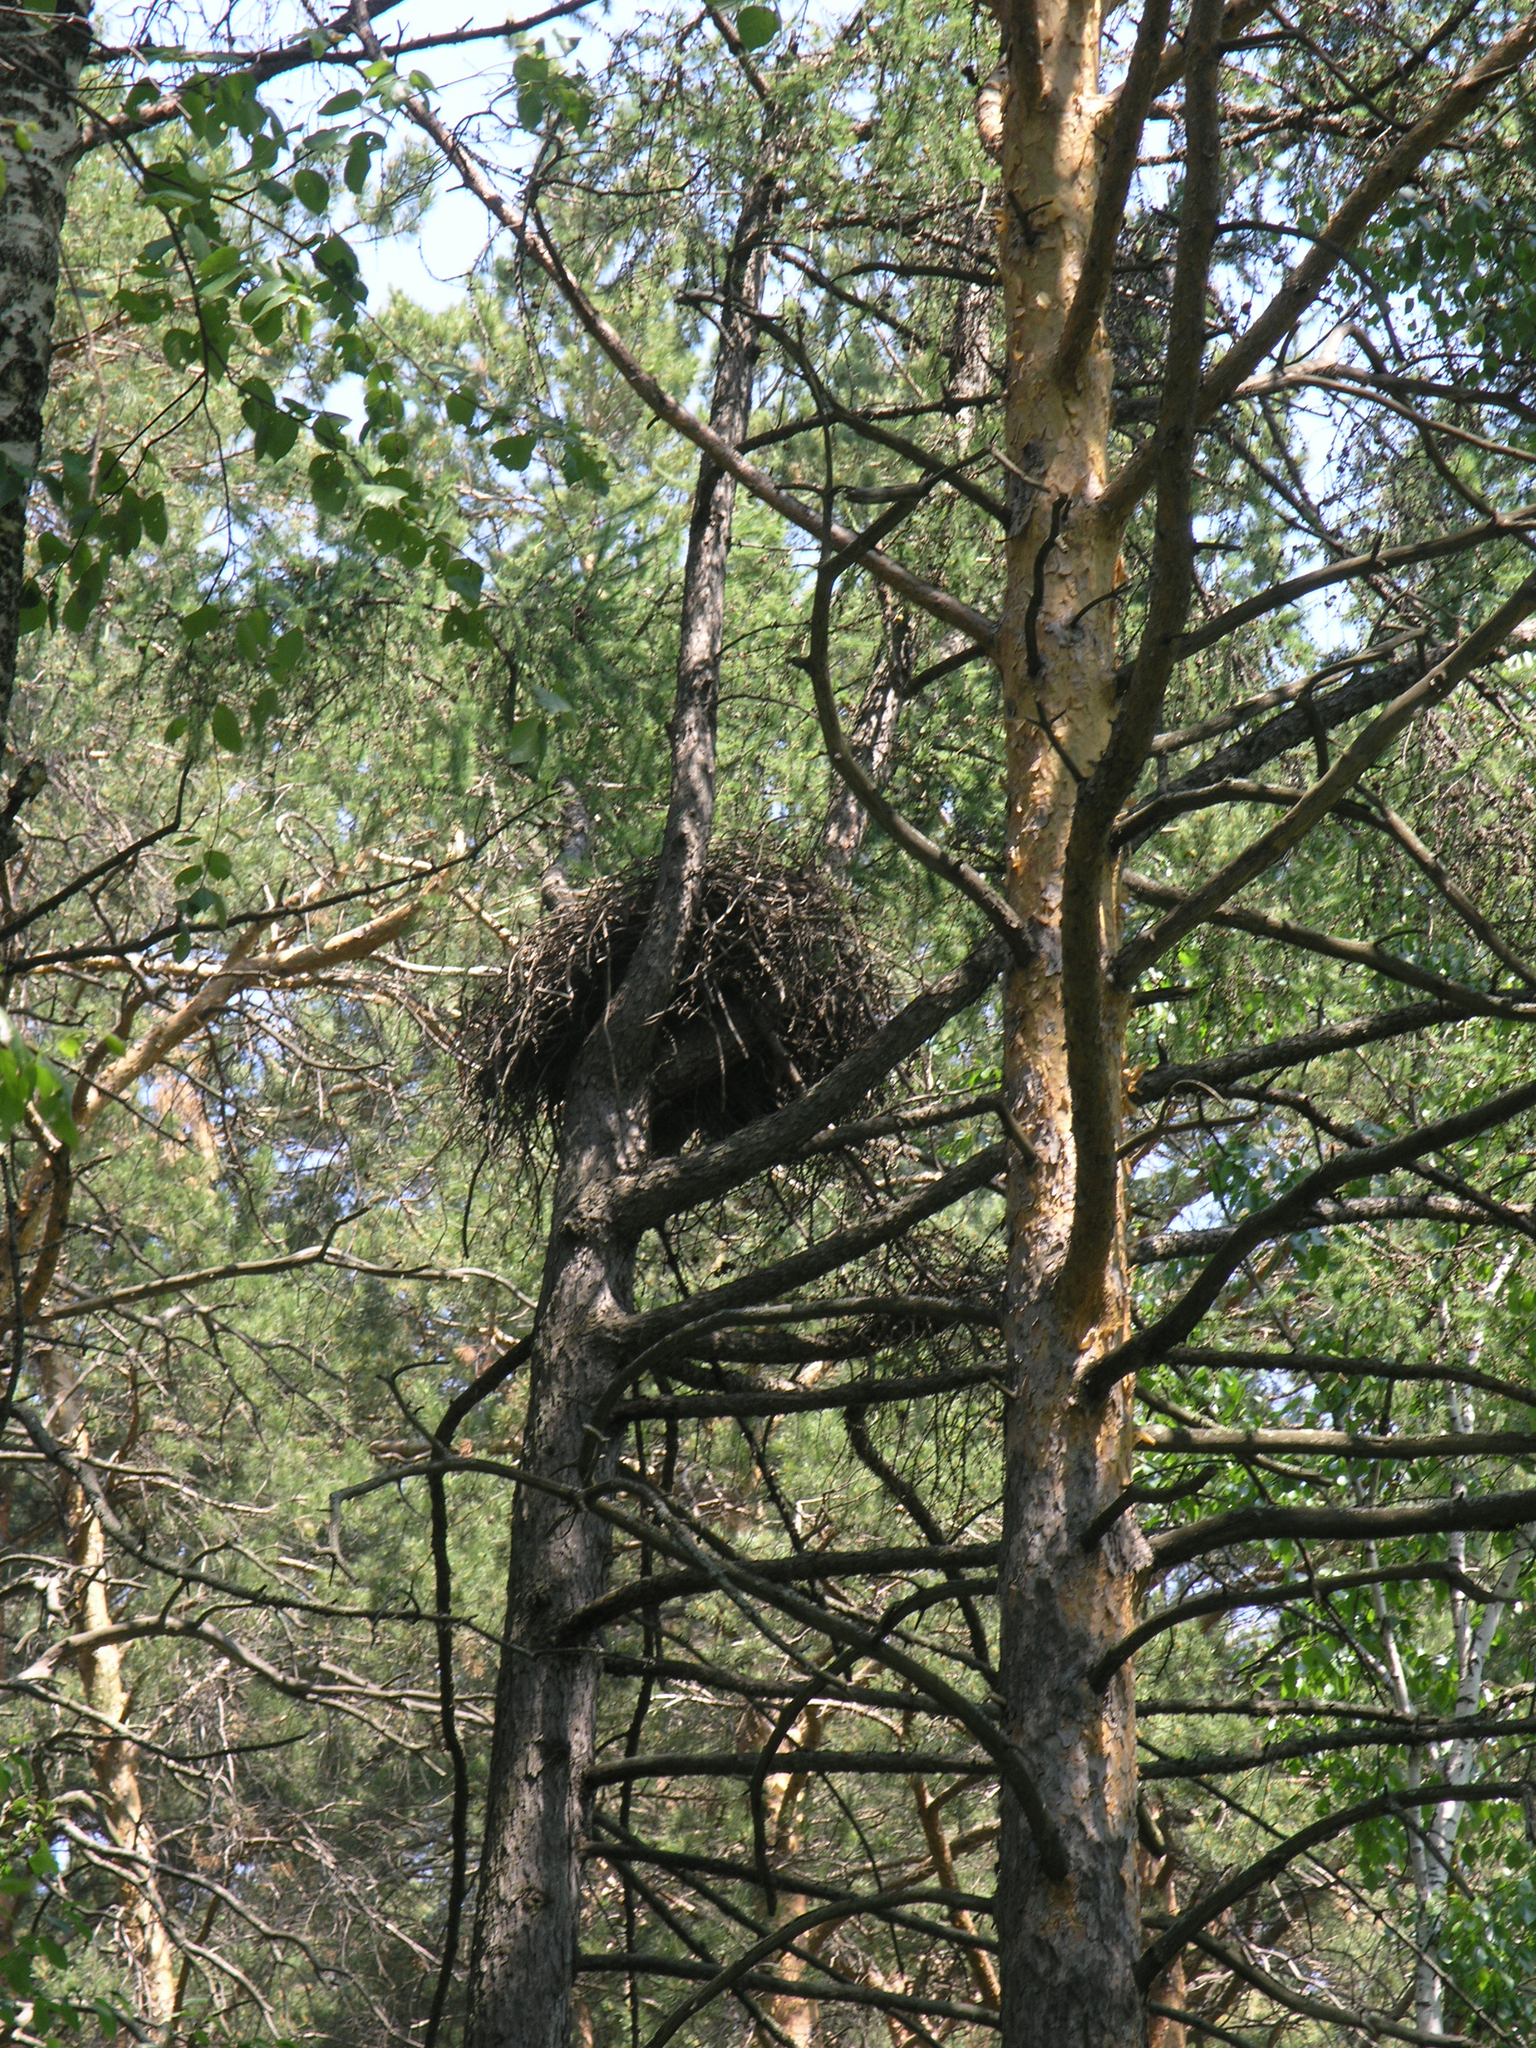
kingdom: Plantae
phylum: Tracheophyta
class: Pinopsida
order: Pinales
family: Pinaceae
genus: Pinus
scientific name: Pinus sylvestris
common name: Scots pine
